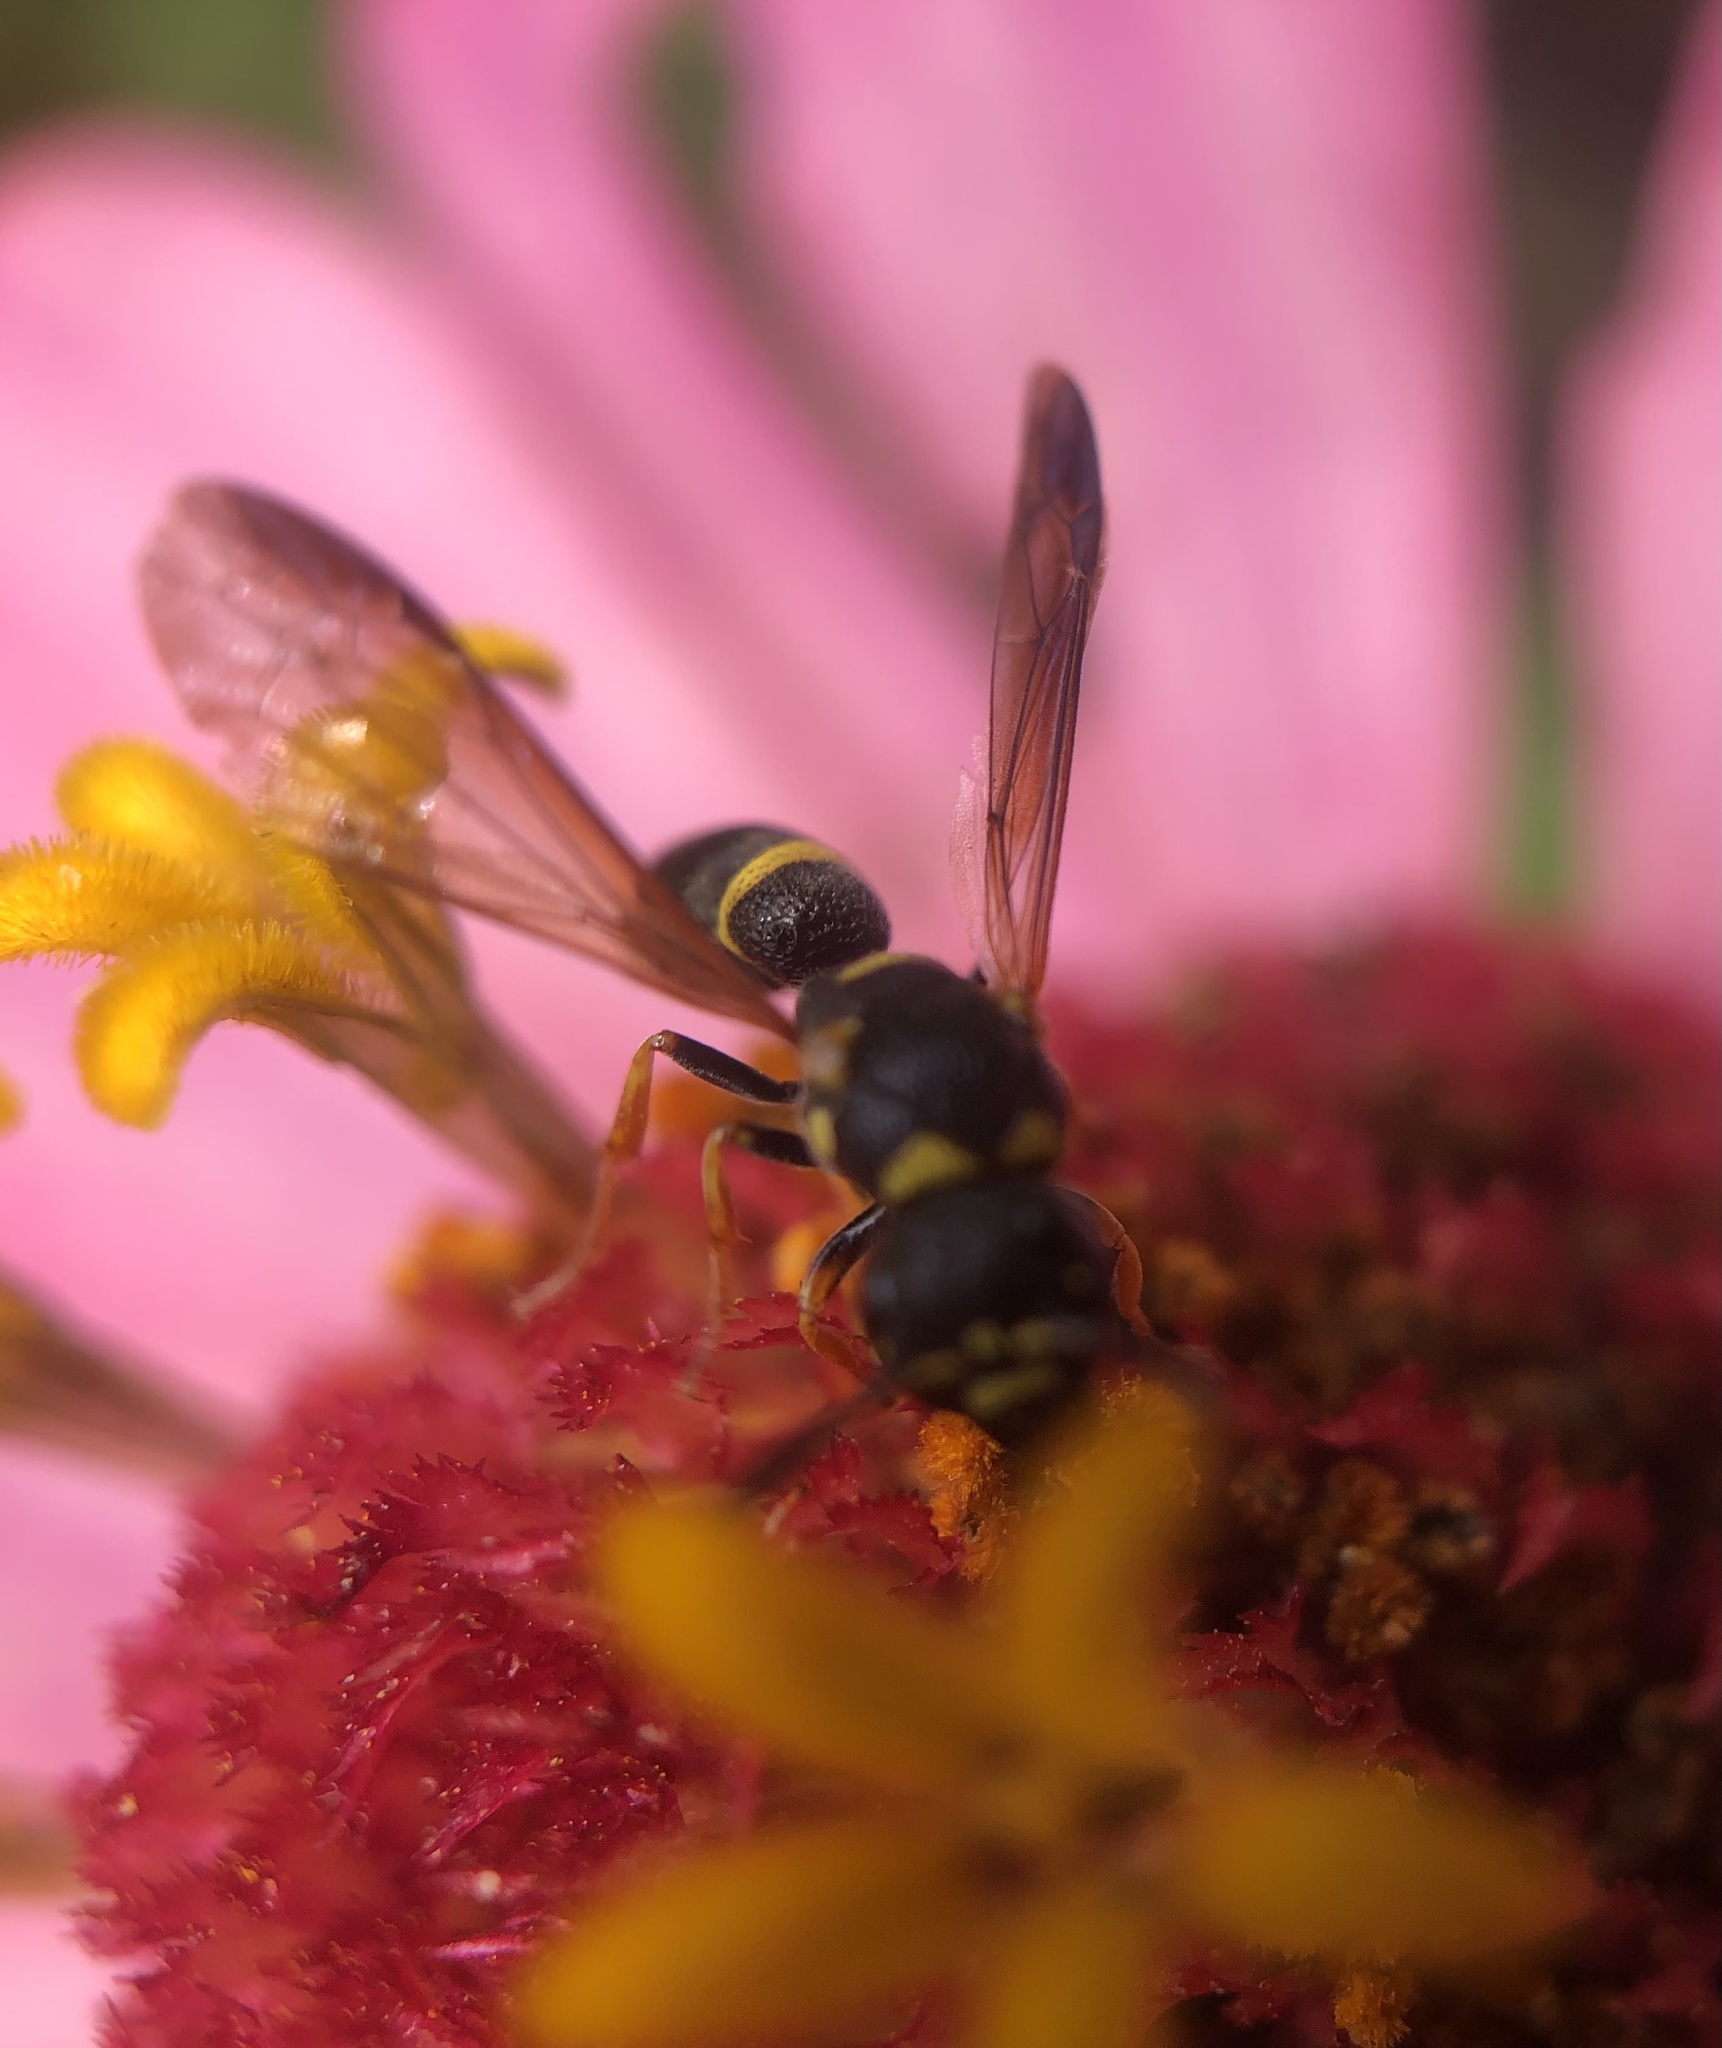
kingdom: Animalia
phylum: Arthropoda
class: Insecta
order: Hymenoptera
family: Eumenidae
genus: Parancistrocerus
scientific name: Parancistrocerus perennis
